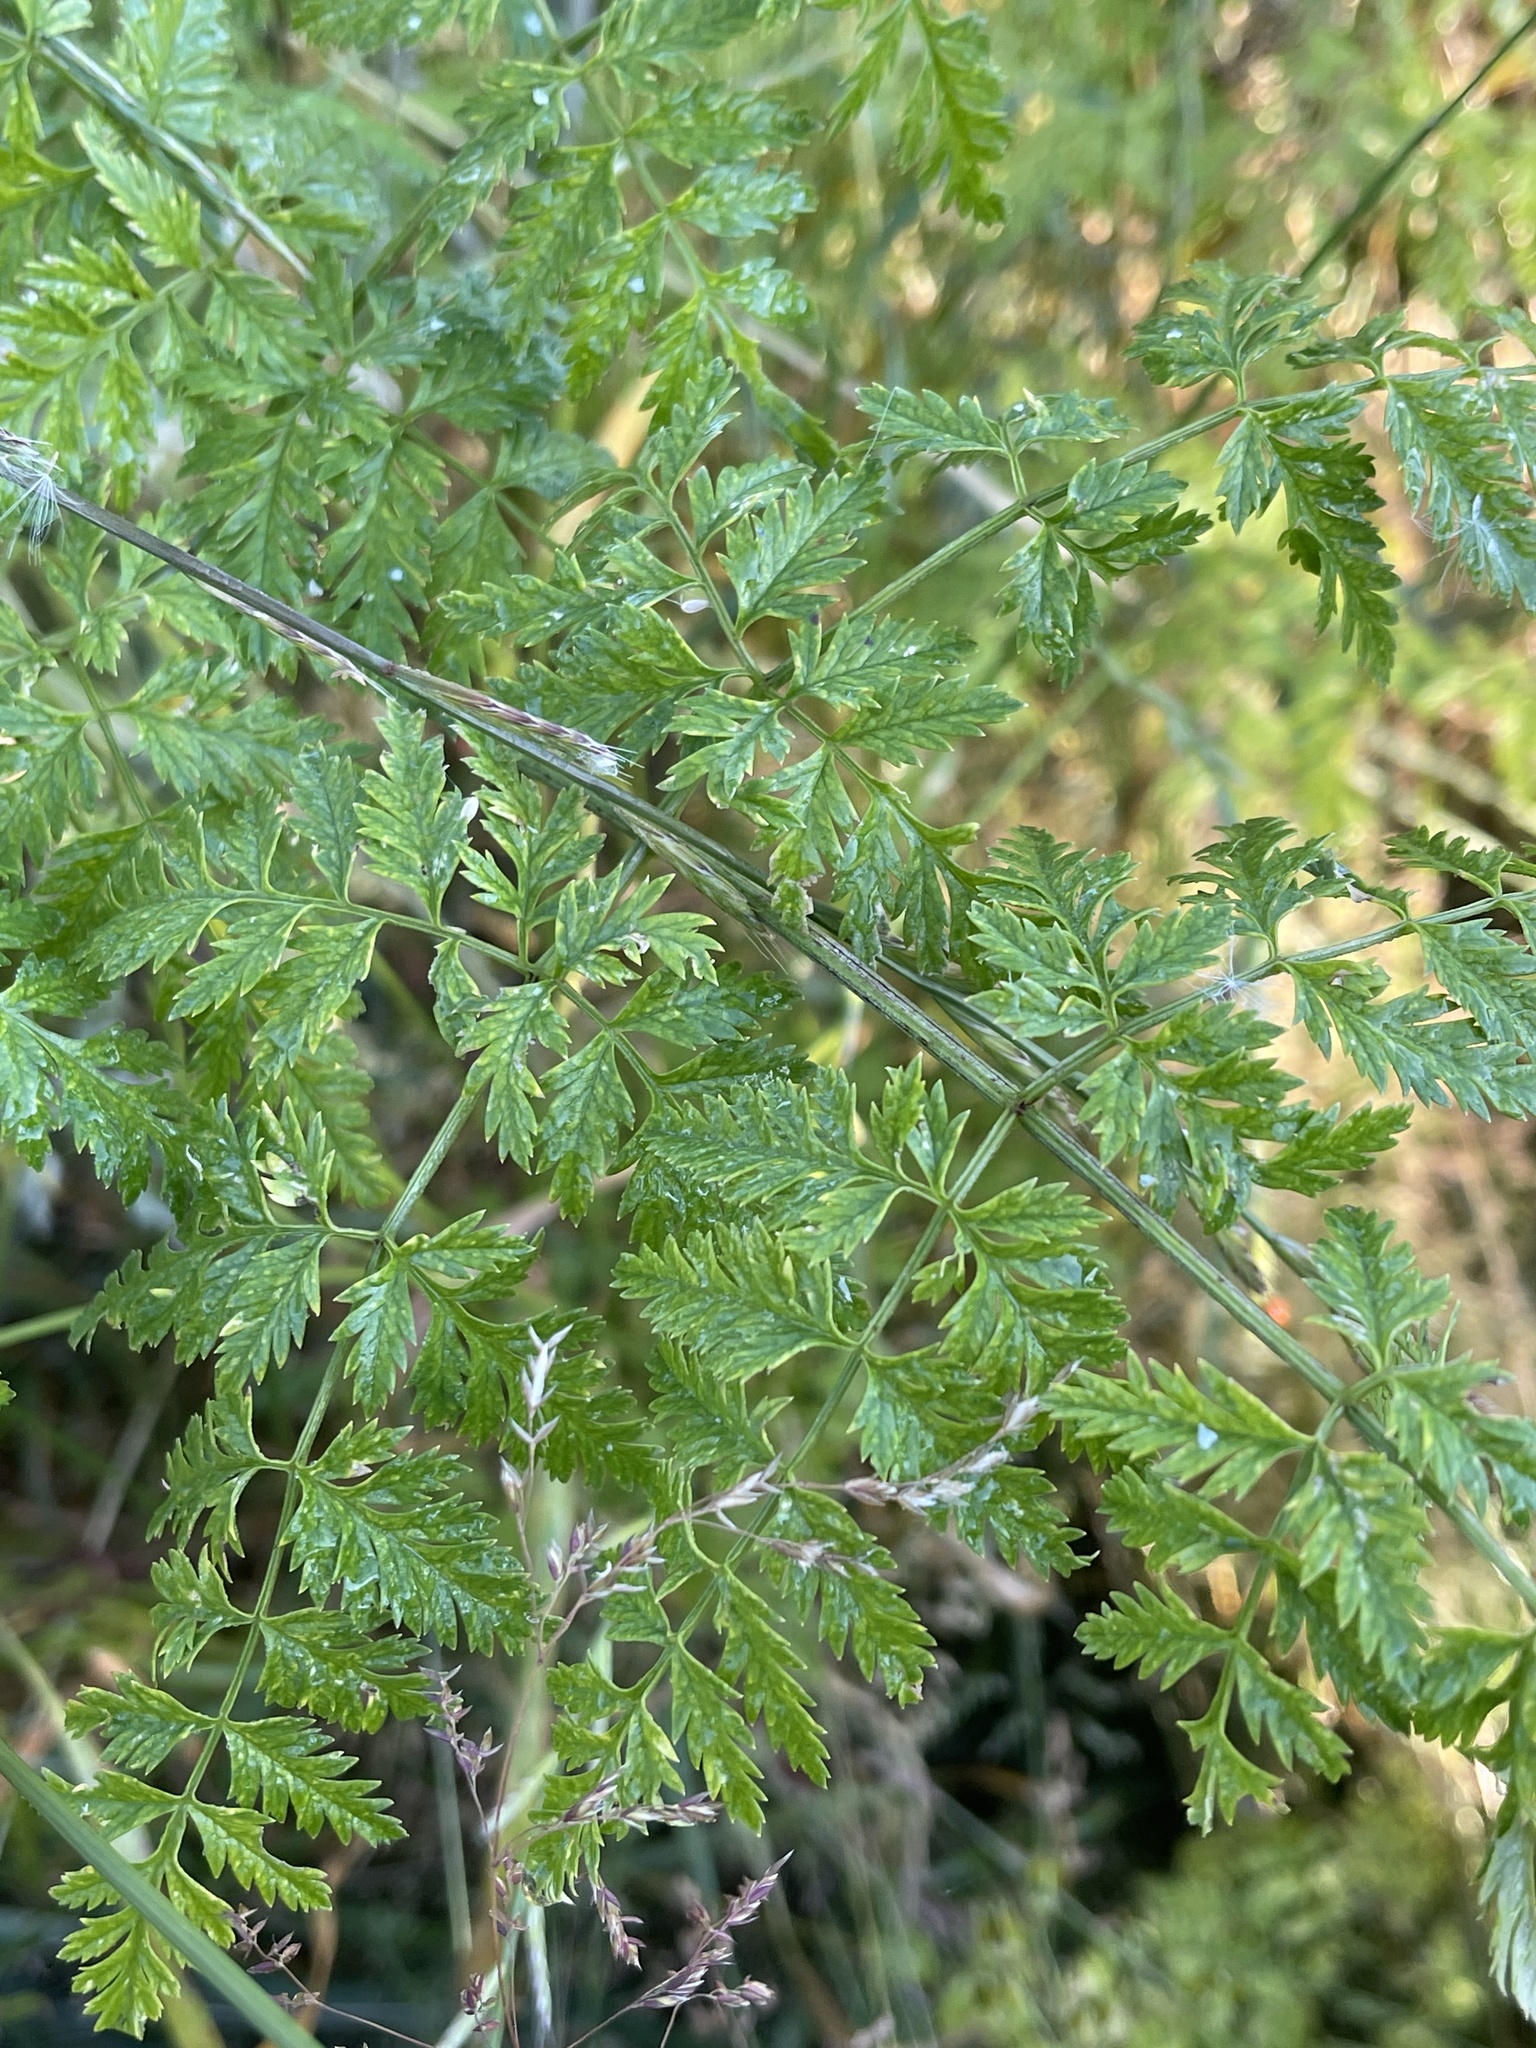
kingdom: Plantae
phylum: Tracheophyta
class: Magnoliopsida
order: Apiales
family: Apiaceae
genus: Conium
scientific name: Conium maculatum
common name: Hemlock
